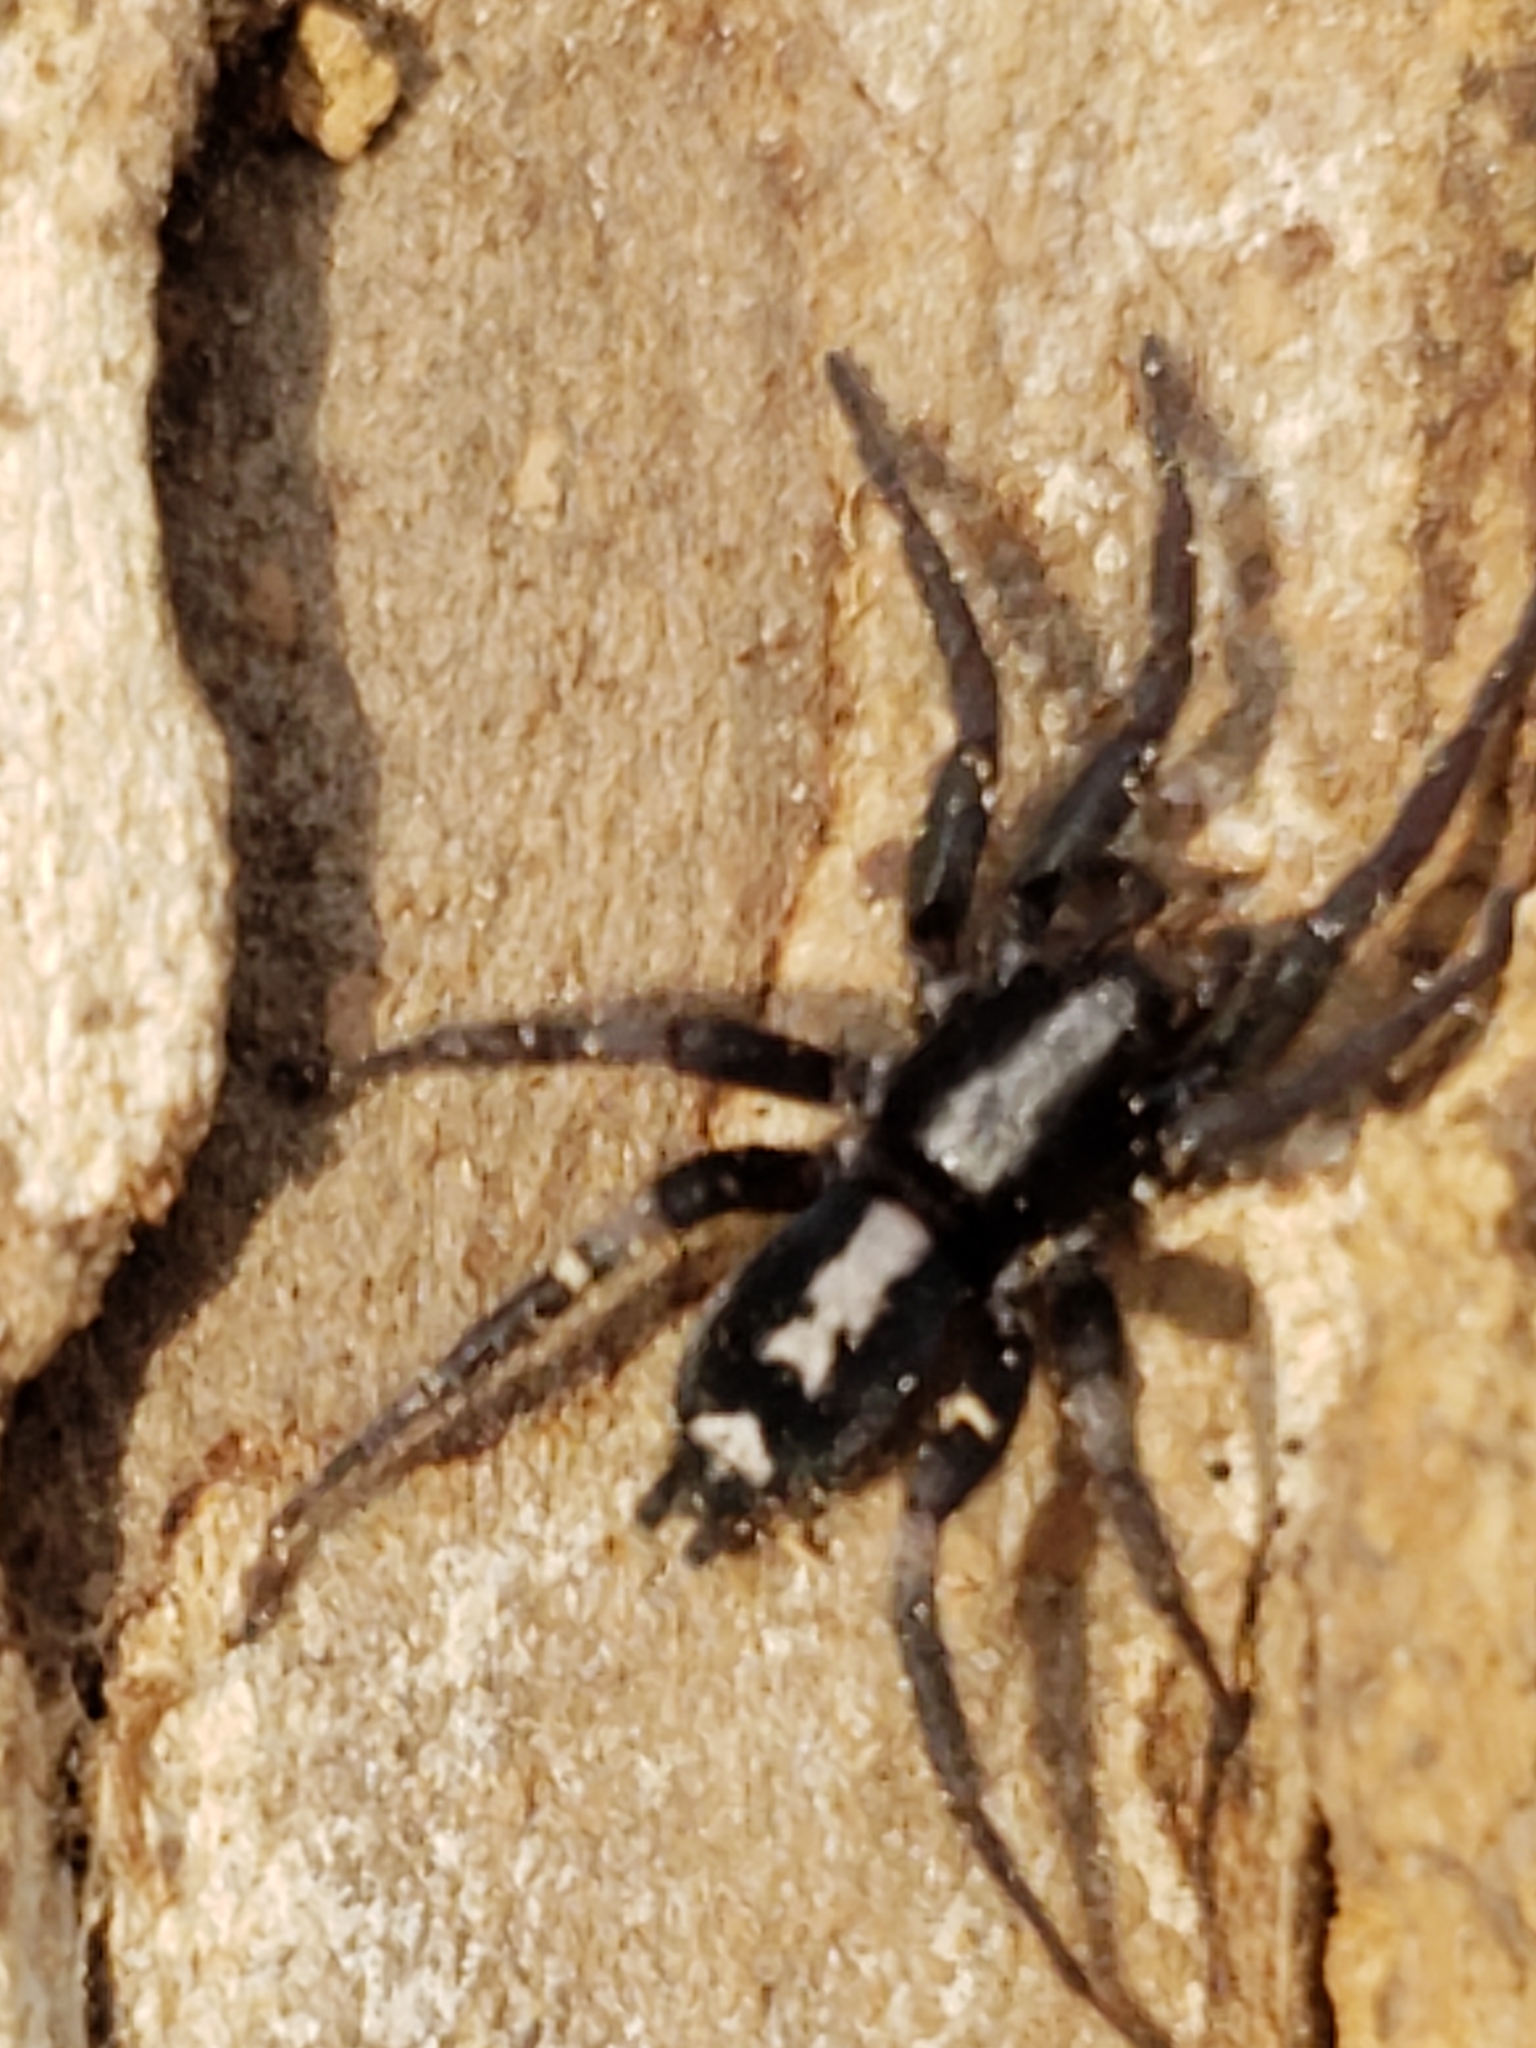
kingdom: Animalia
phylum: Arthropoda
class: Arachnida
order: Araneae
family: Gnaphosidae
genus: Herpyllus
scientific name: Herpyllus ecclesiasticus
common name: Eastern parson spider
